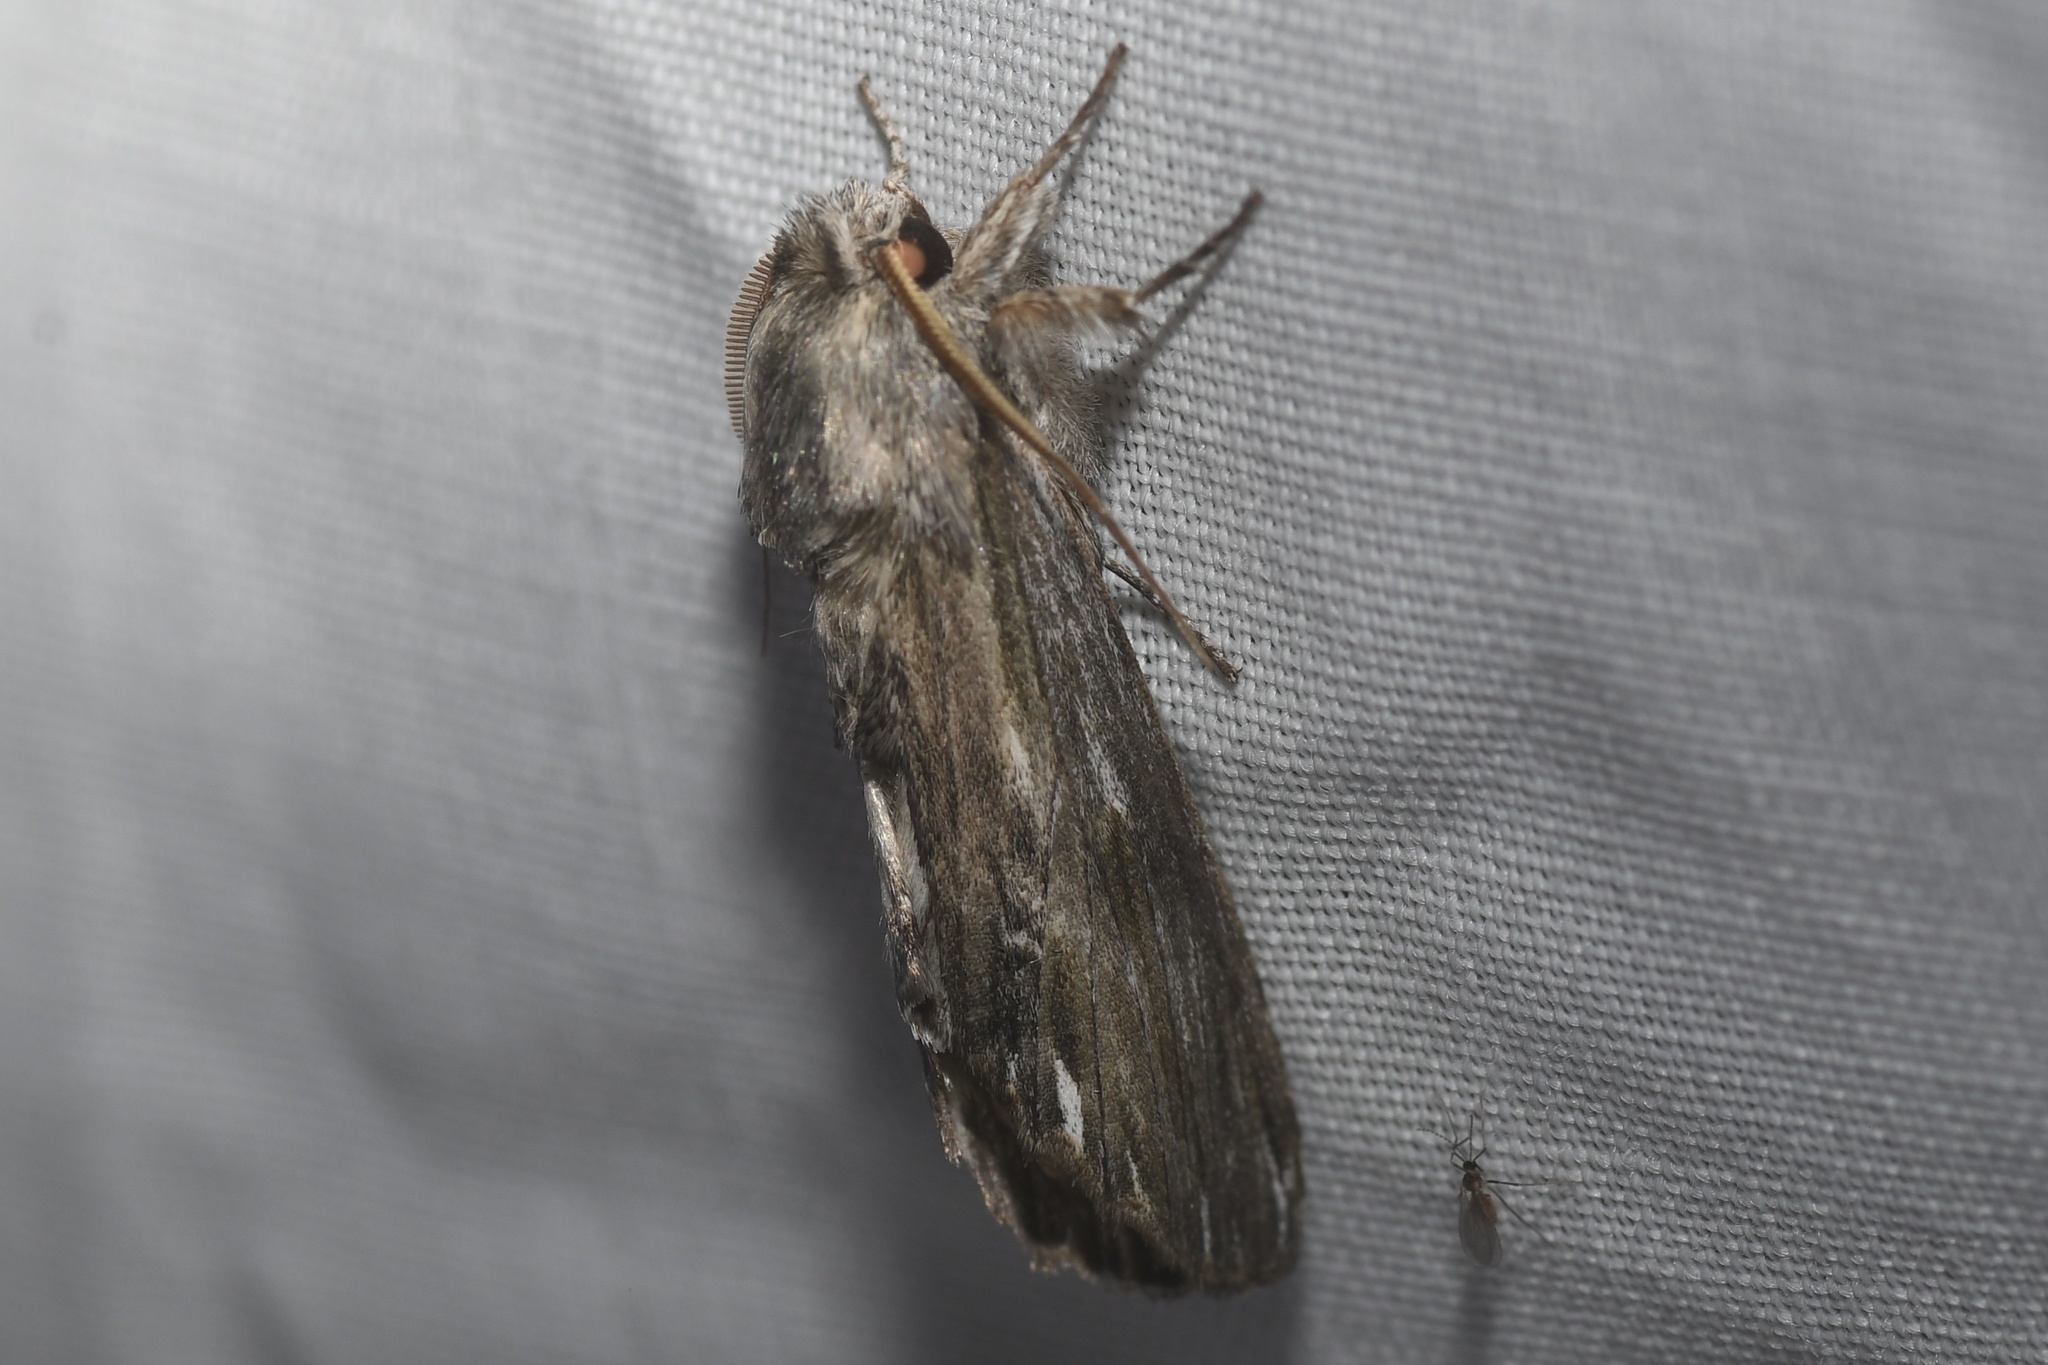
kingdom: Animalia
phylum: Arthropoda
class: Insecta
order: Lepidoptera
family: Notodontidae
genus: Oligocentria
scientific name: Oligocentria Ianassa lignicolor
